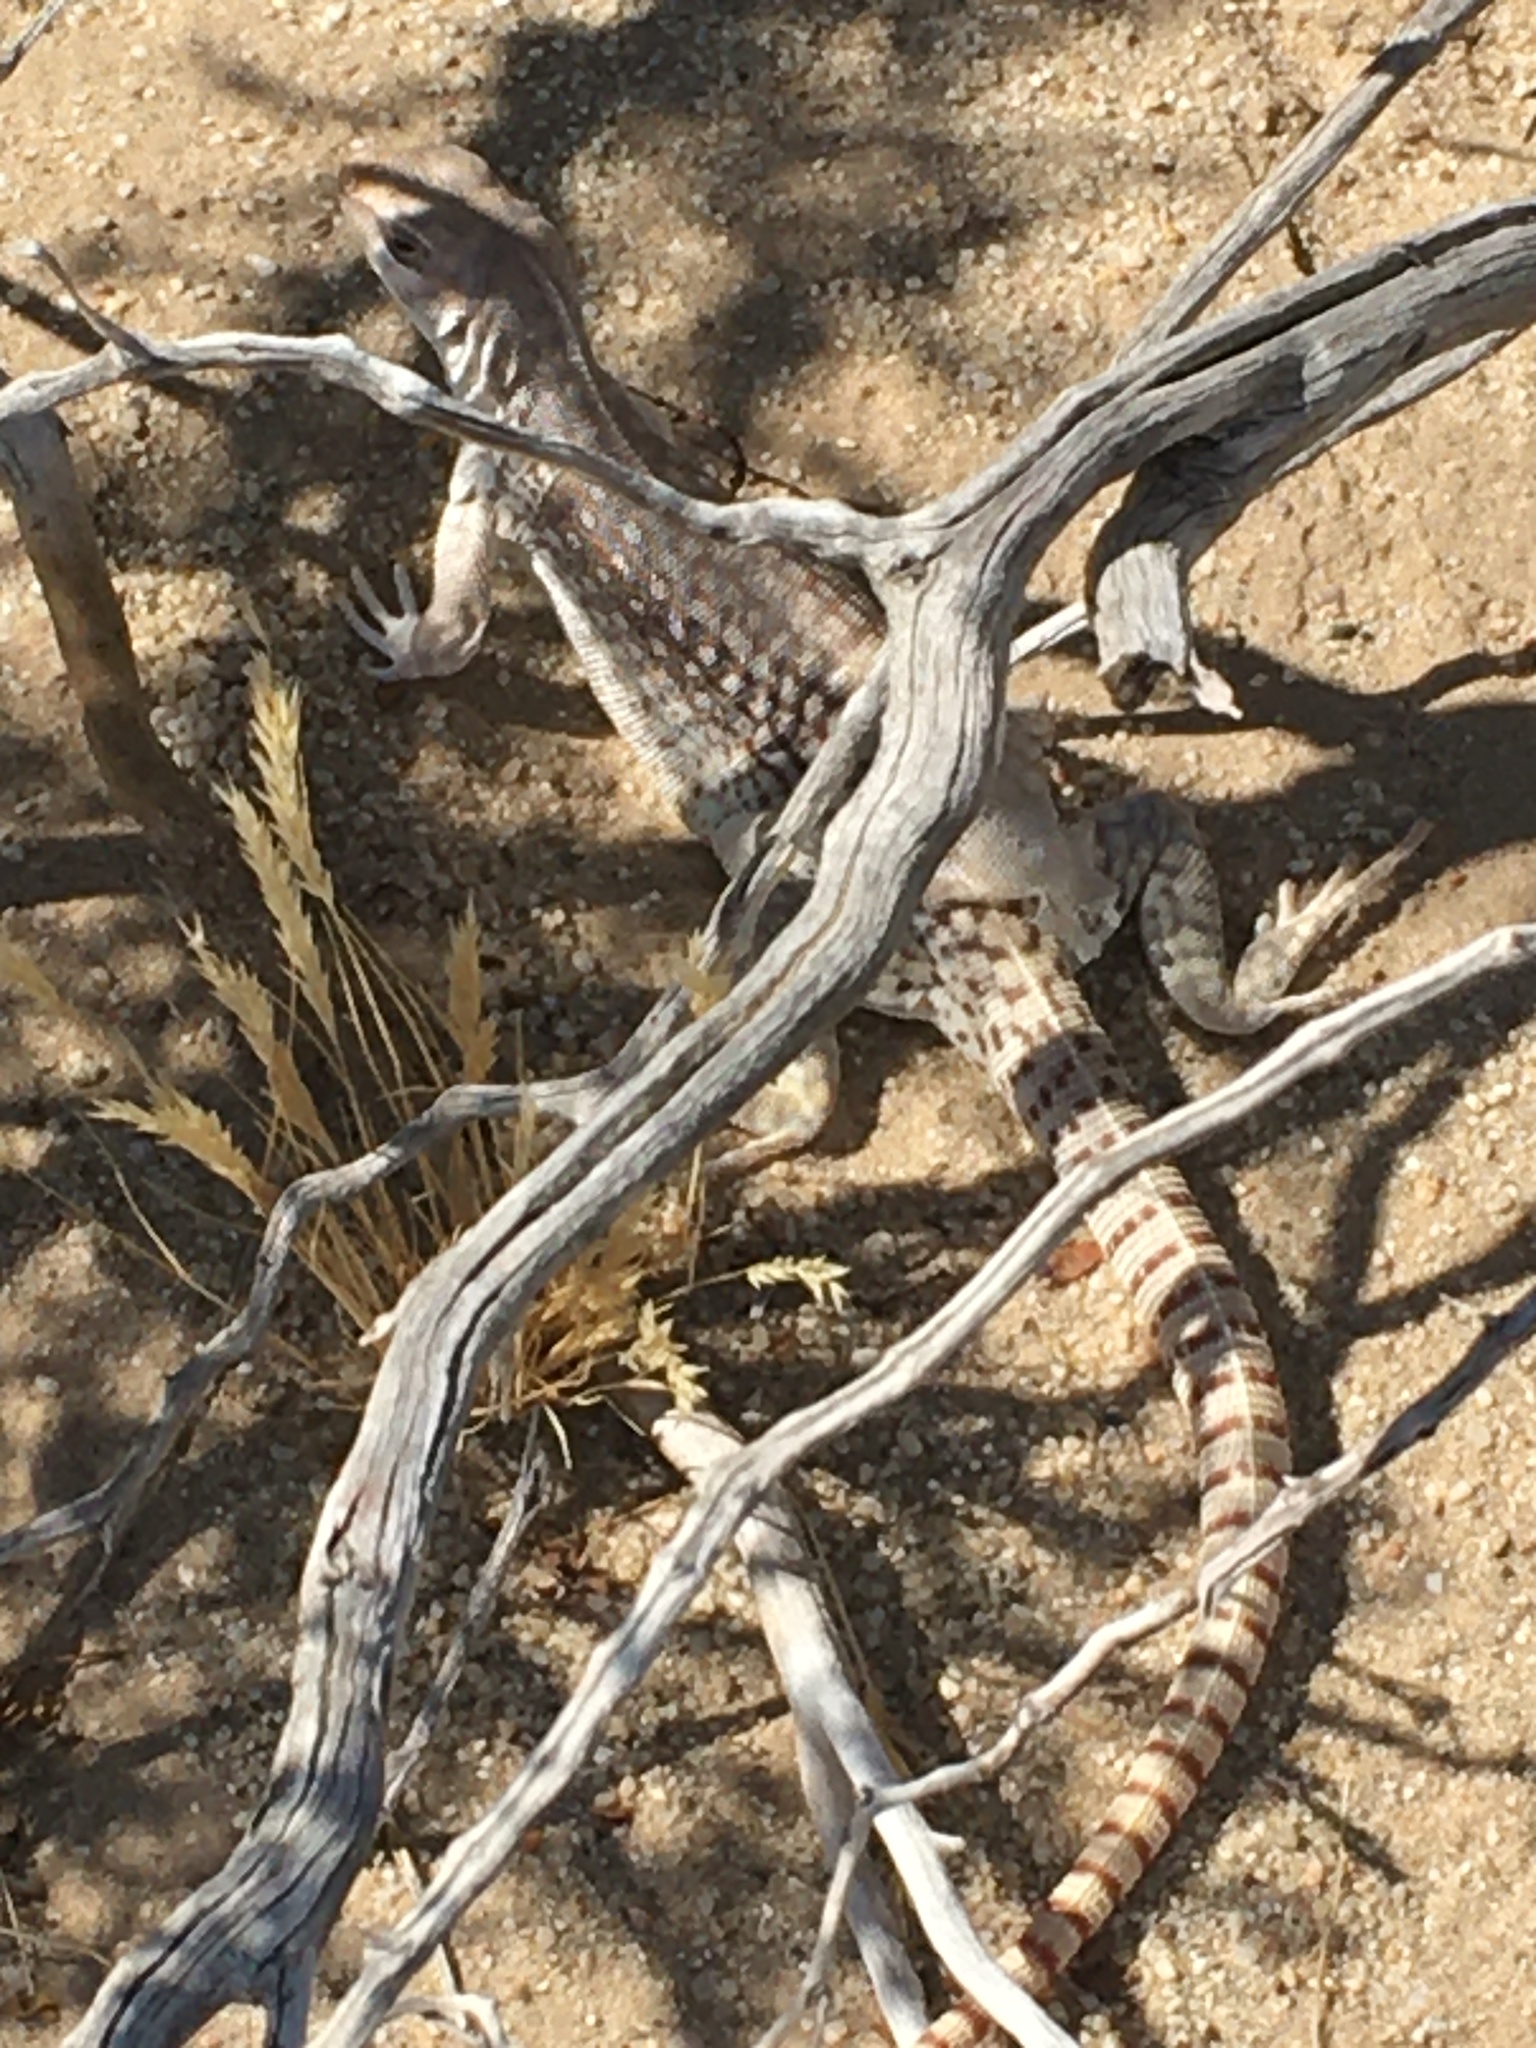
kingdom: Animalia
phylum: Chordata
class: Squamata
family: Iguanidae
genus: Dipsosaurus
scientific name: Dipsosaurus dorsalis
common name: Desert iguana
